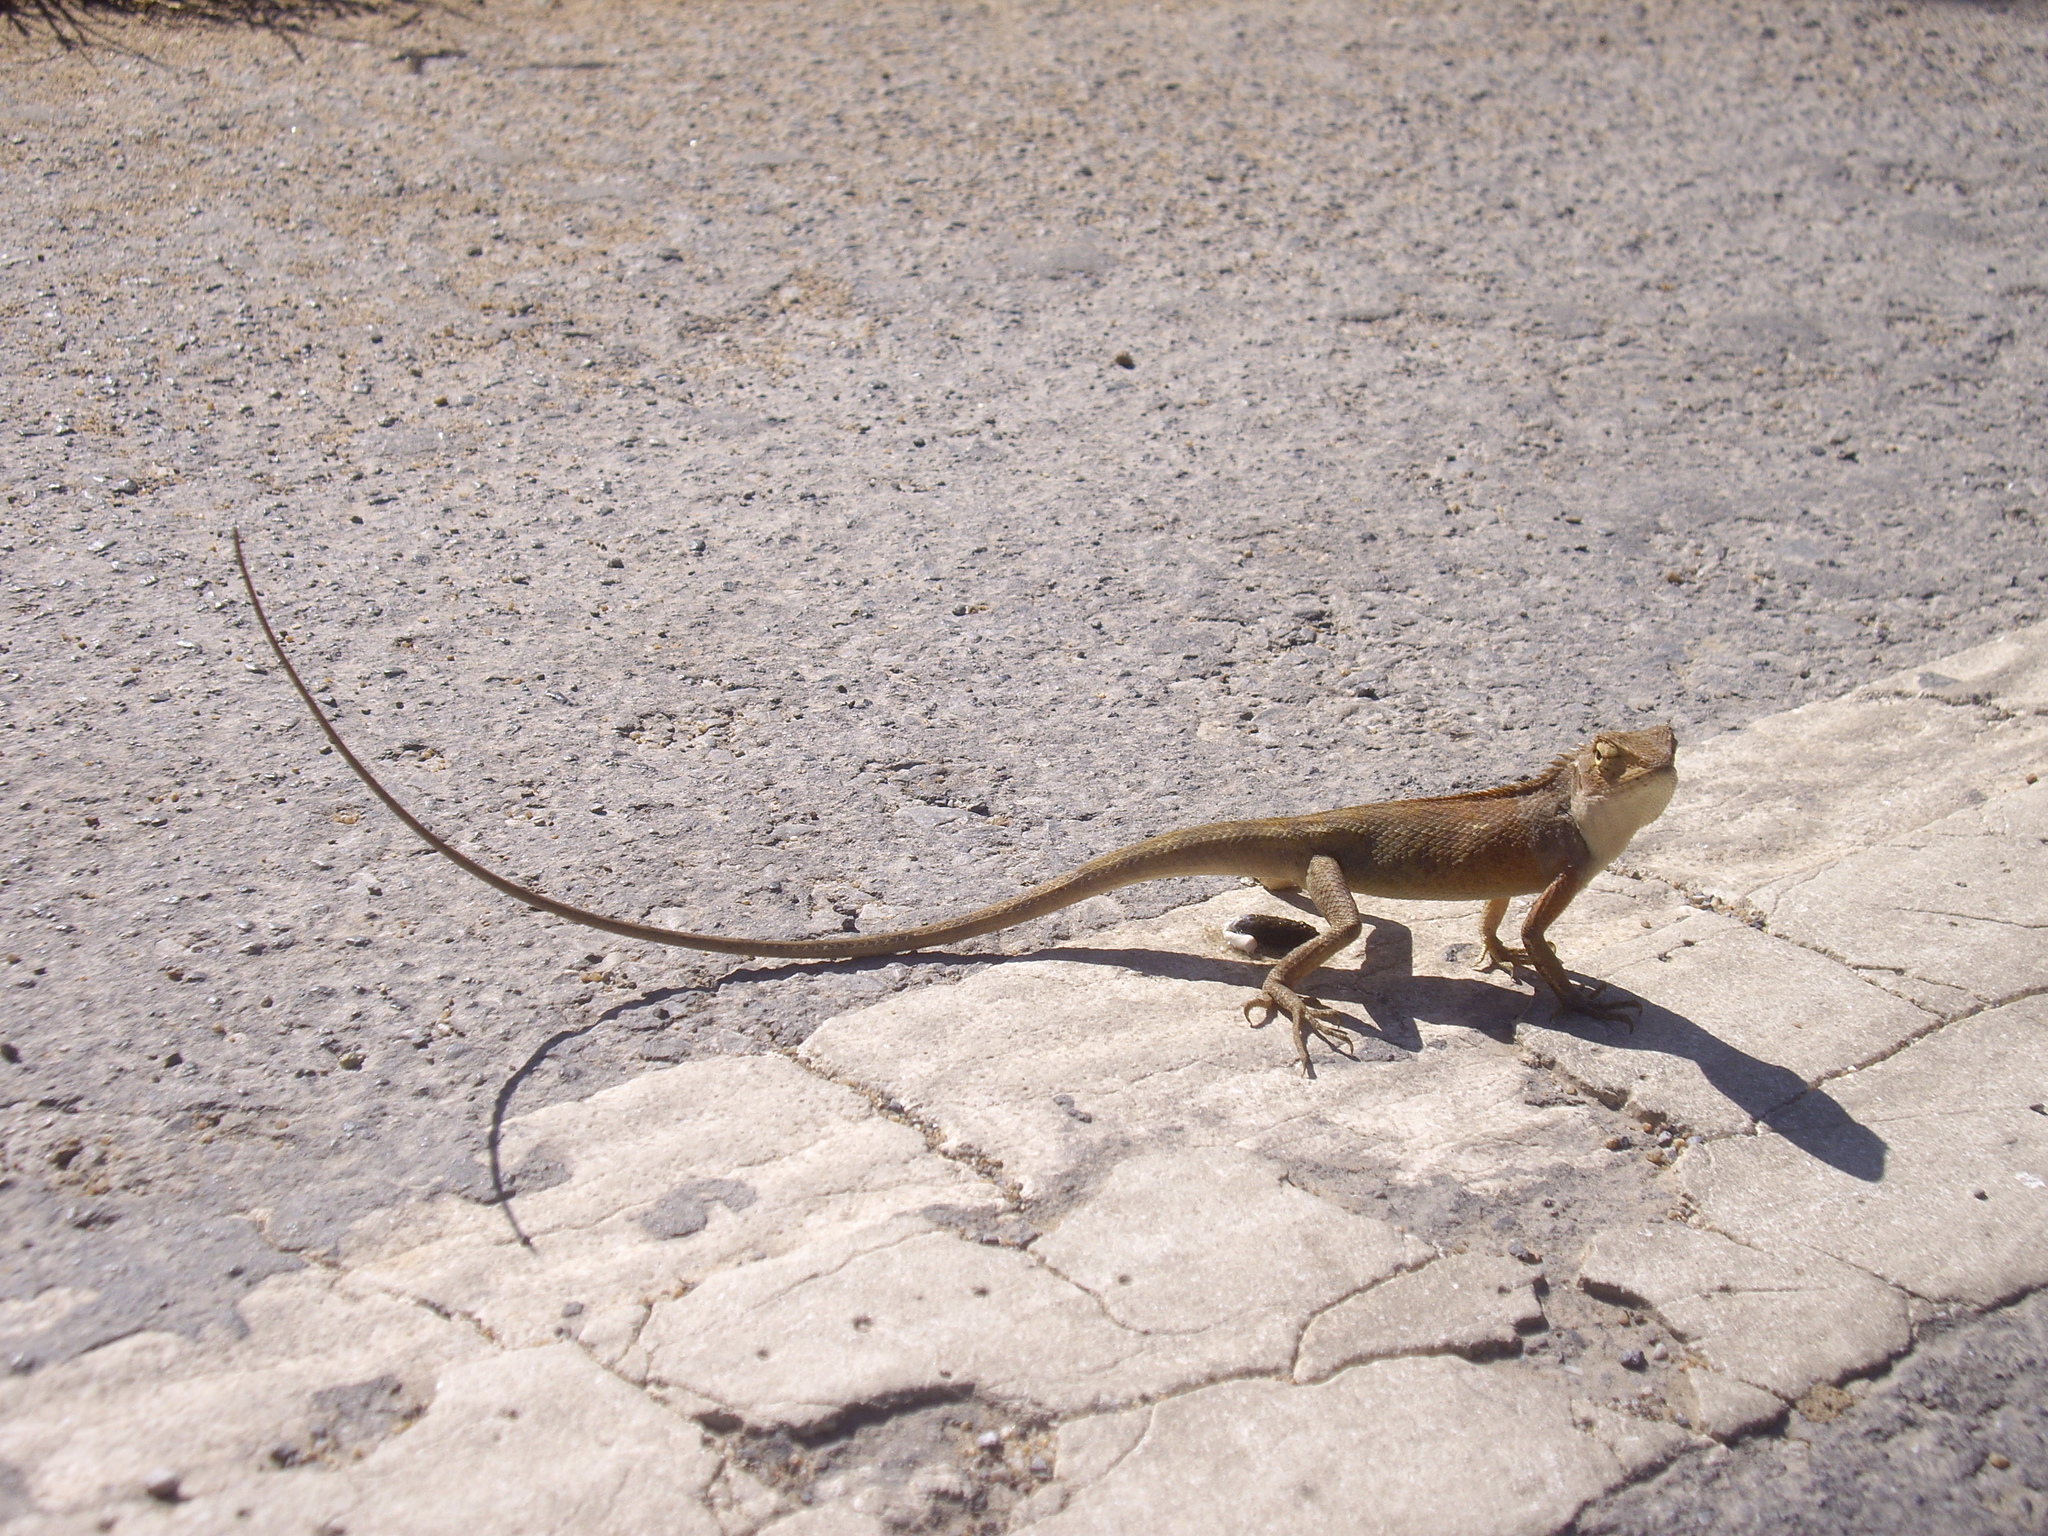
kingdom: Animalia
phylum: Chordata
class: Squamata
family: Agamidae
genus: Calotes
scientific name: Calotes versicolor
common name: Oriental garden lizard
